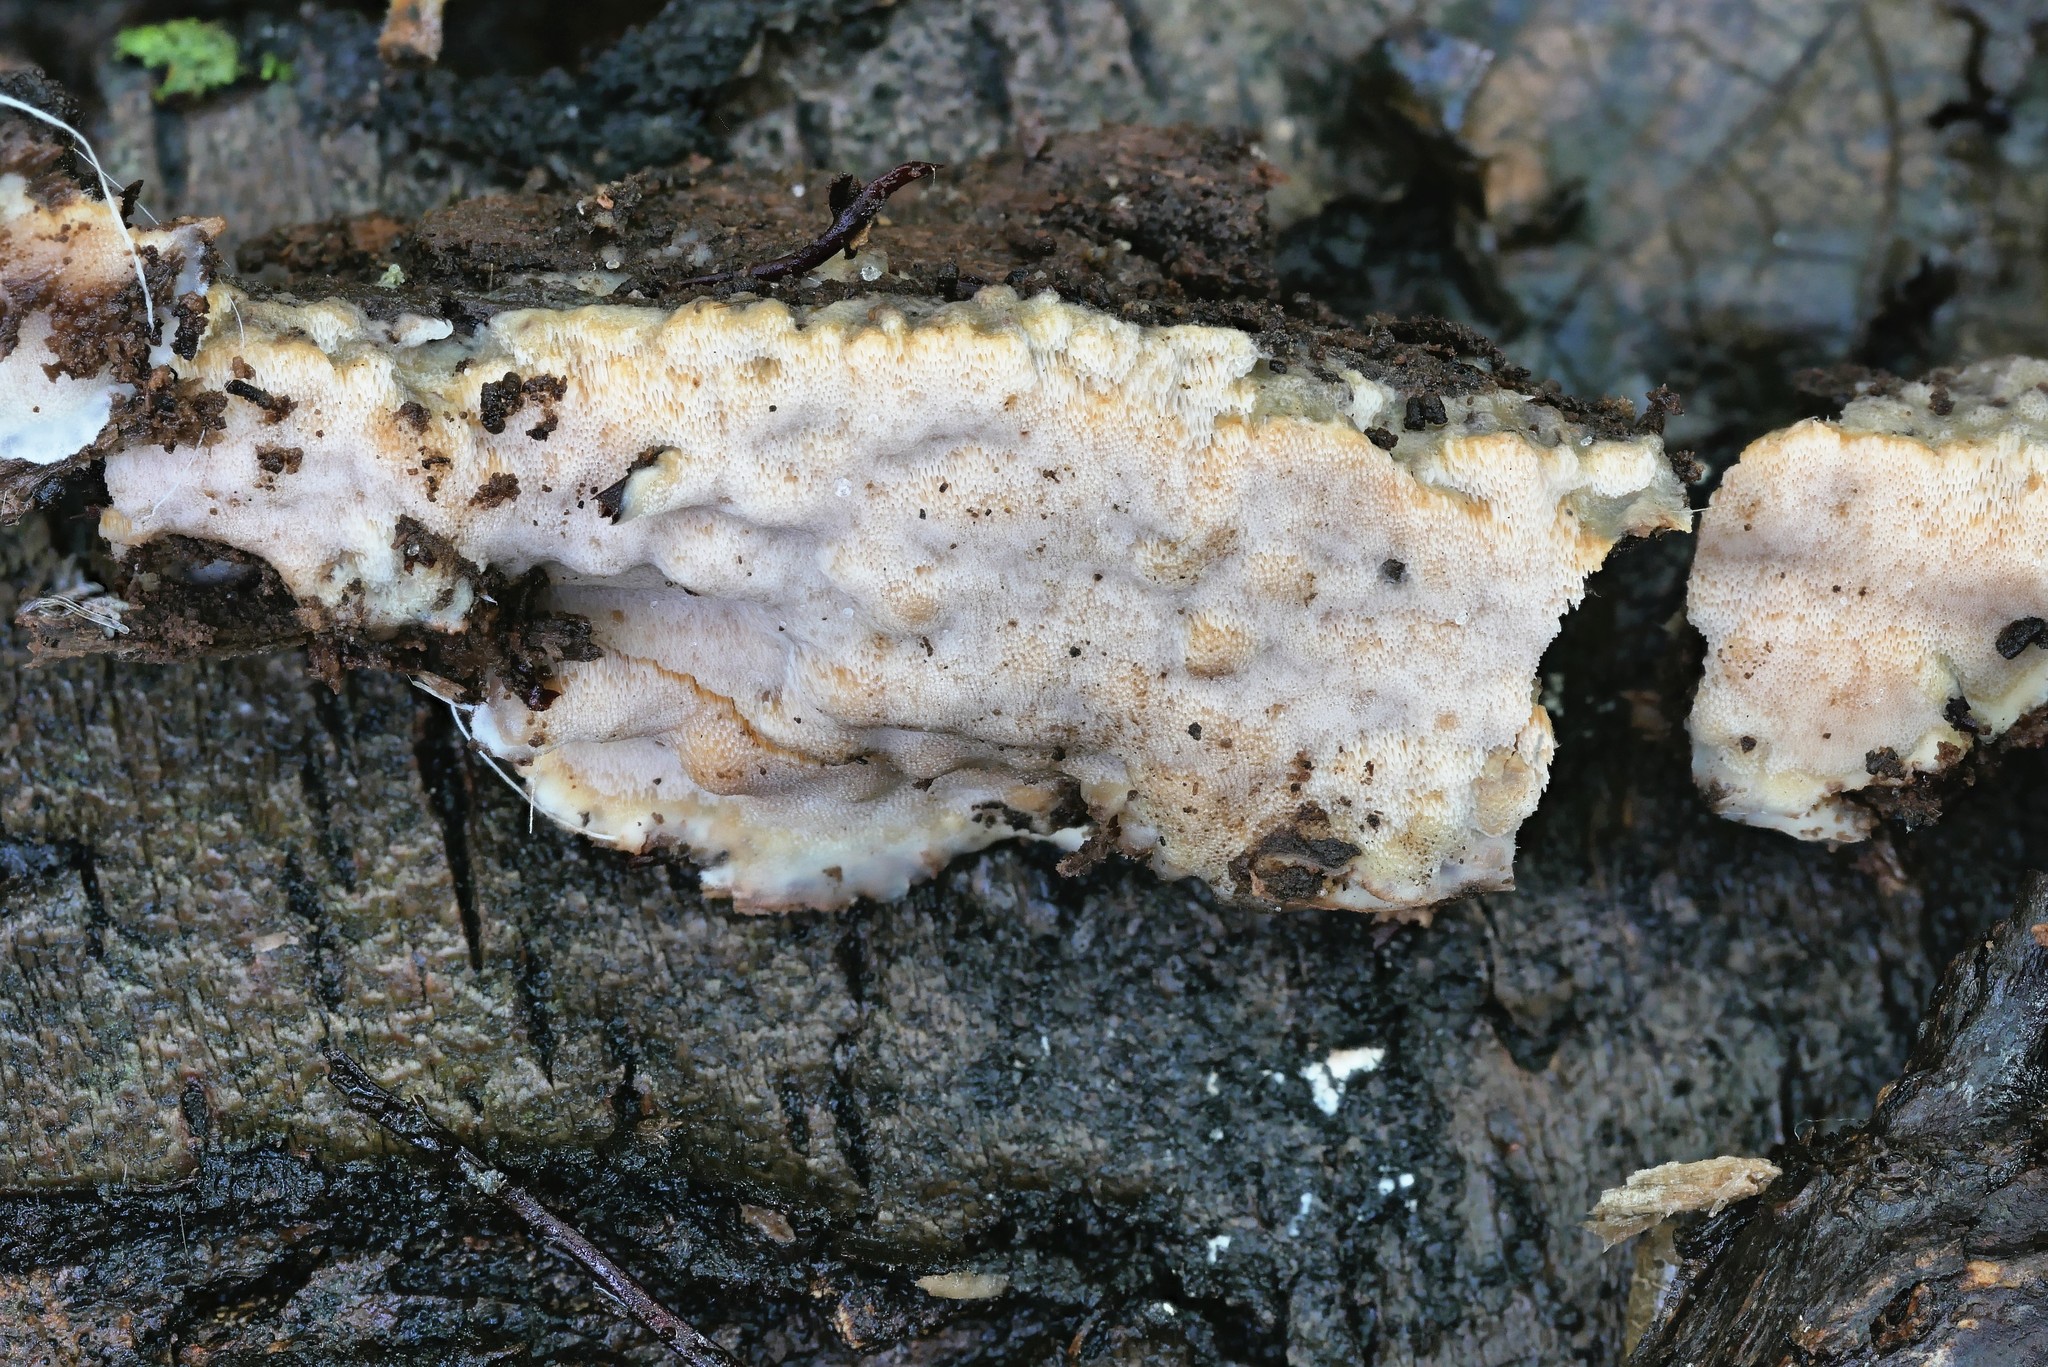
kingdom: Fungi
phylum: Basidiomycota
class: Agaricomycetes
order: Polyporales
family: Meripilaceae
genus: Rigidoporus
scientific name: Rigidoporus pouzarii
